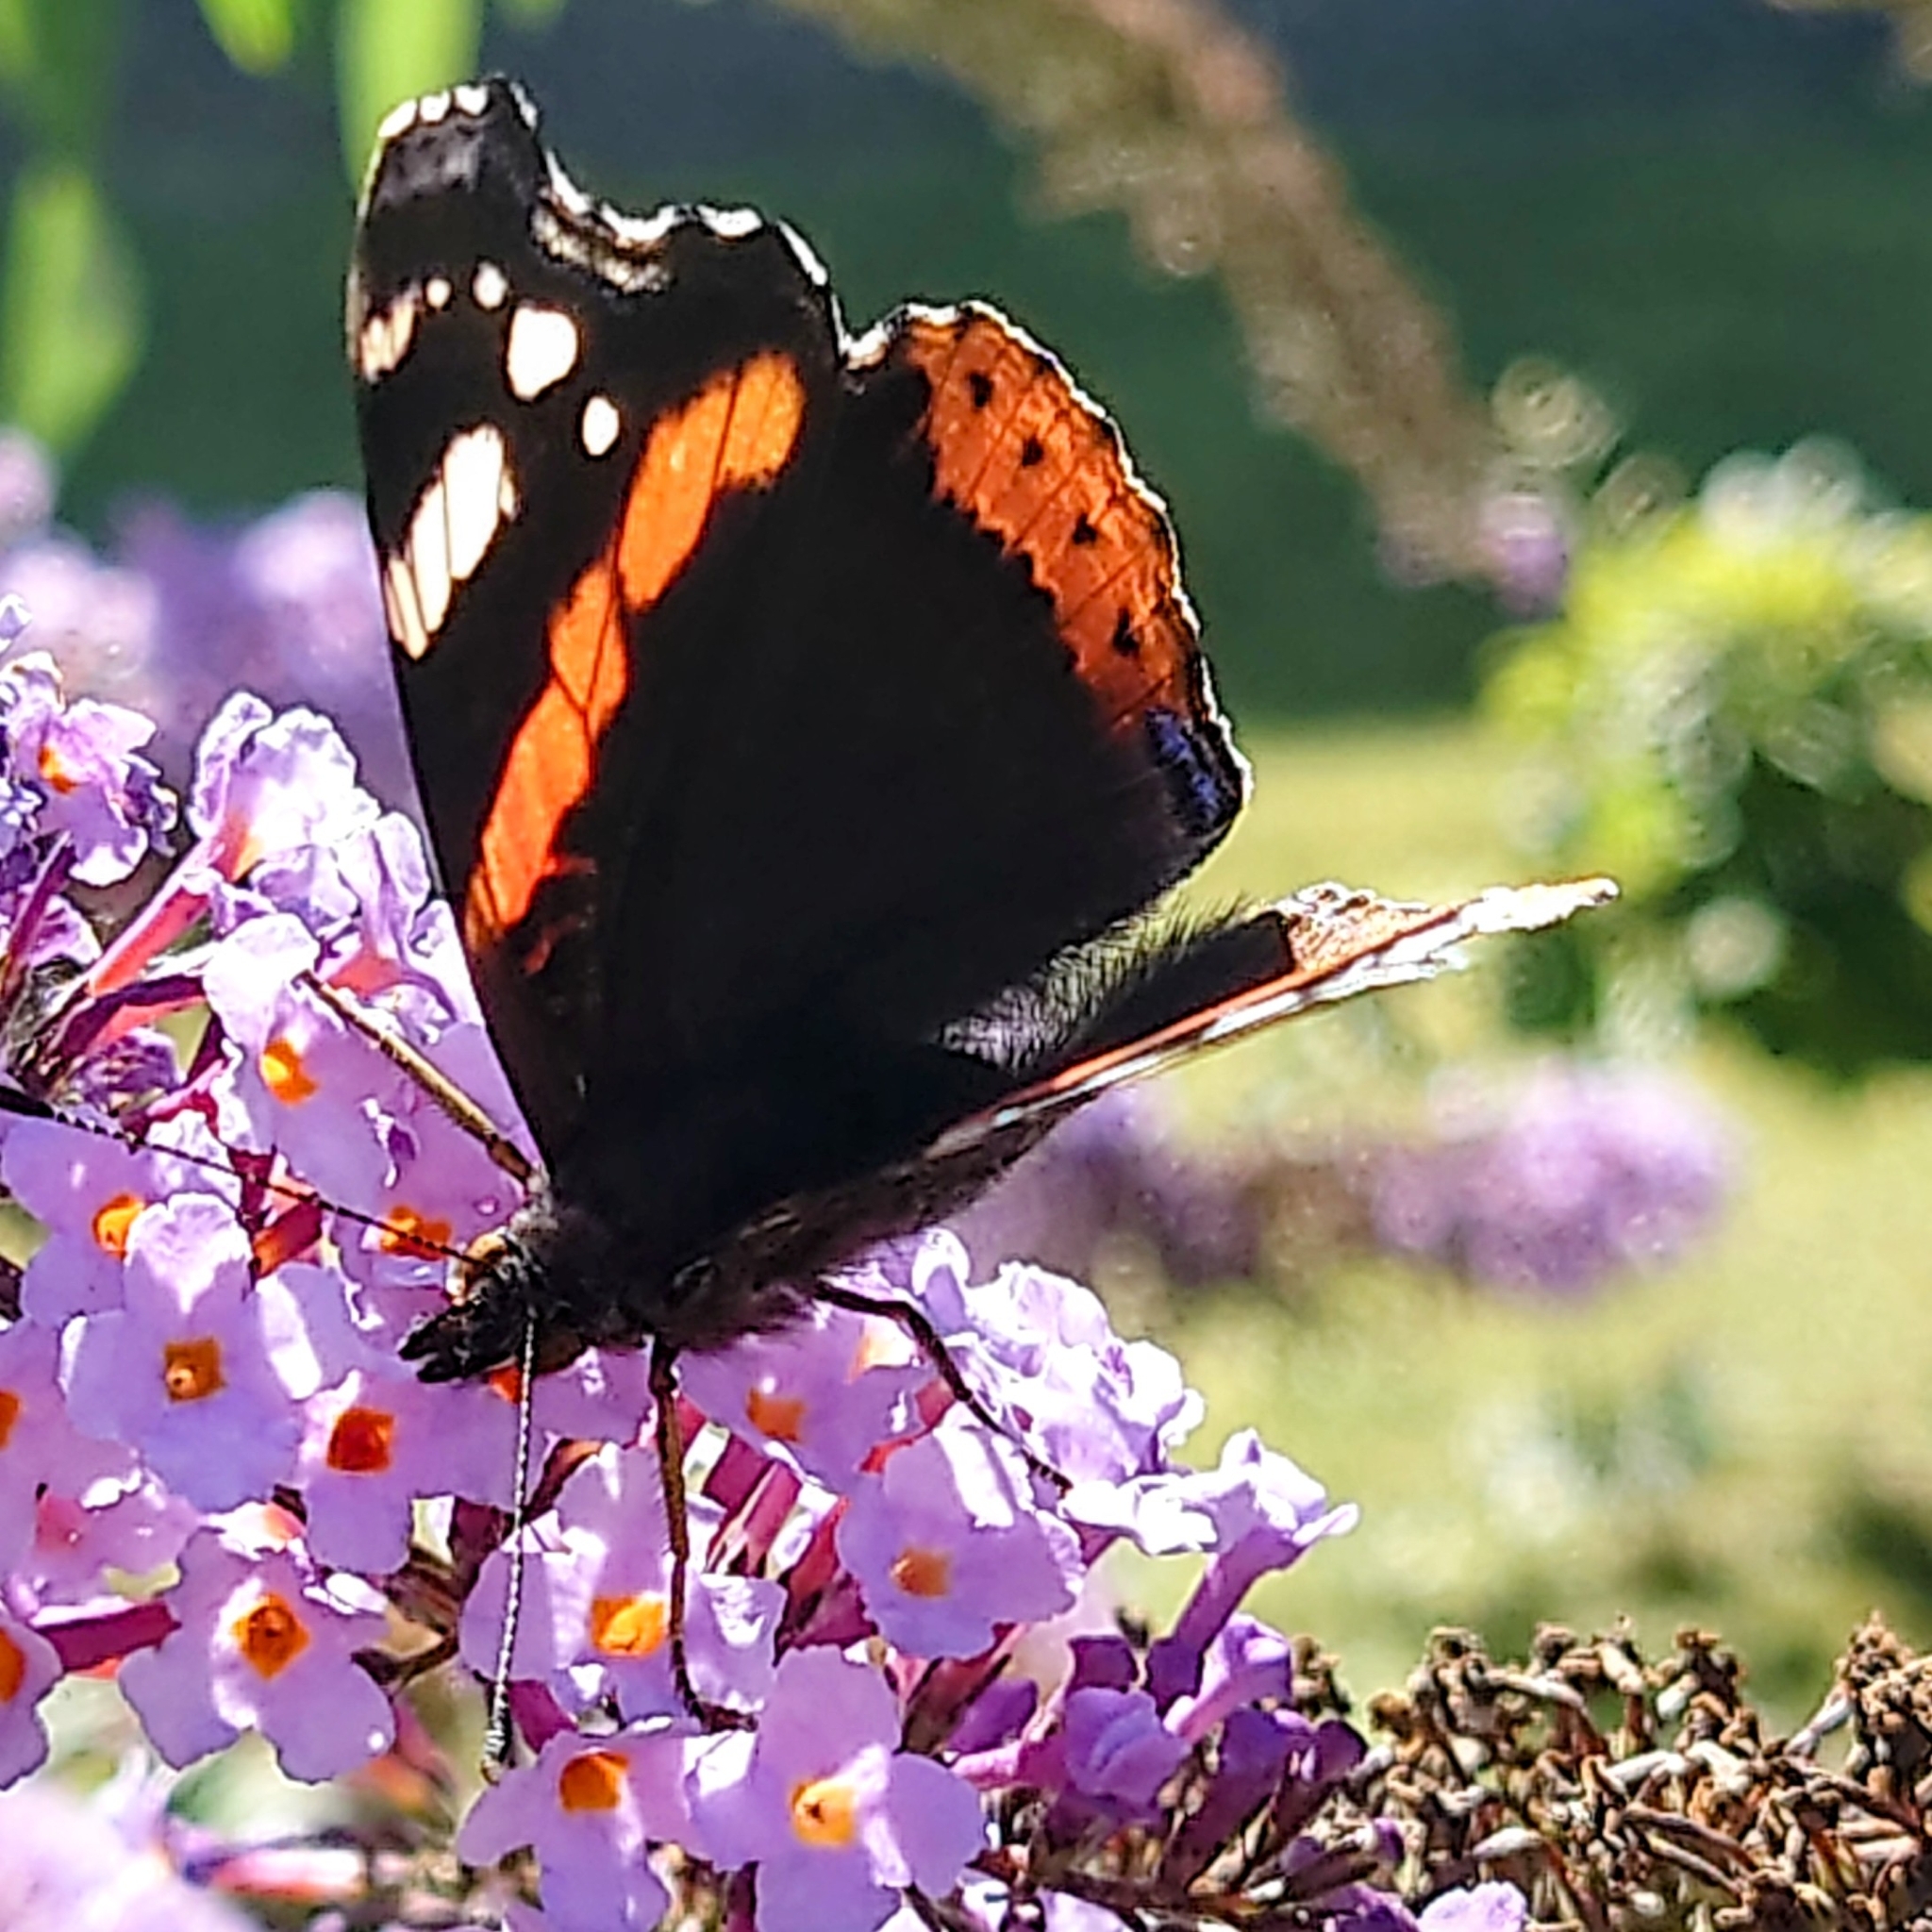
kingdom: Animalia
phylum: Arthropoda
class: Insecta
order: Lepidoptera
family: Nymphalidae
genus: Vanessa
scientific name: Vanessa atalanta
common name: Red admiral
